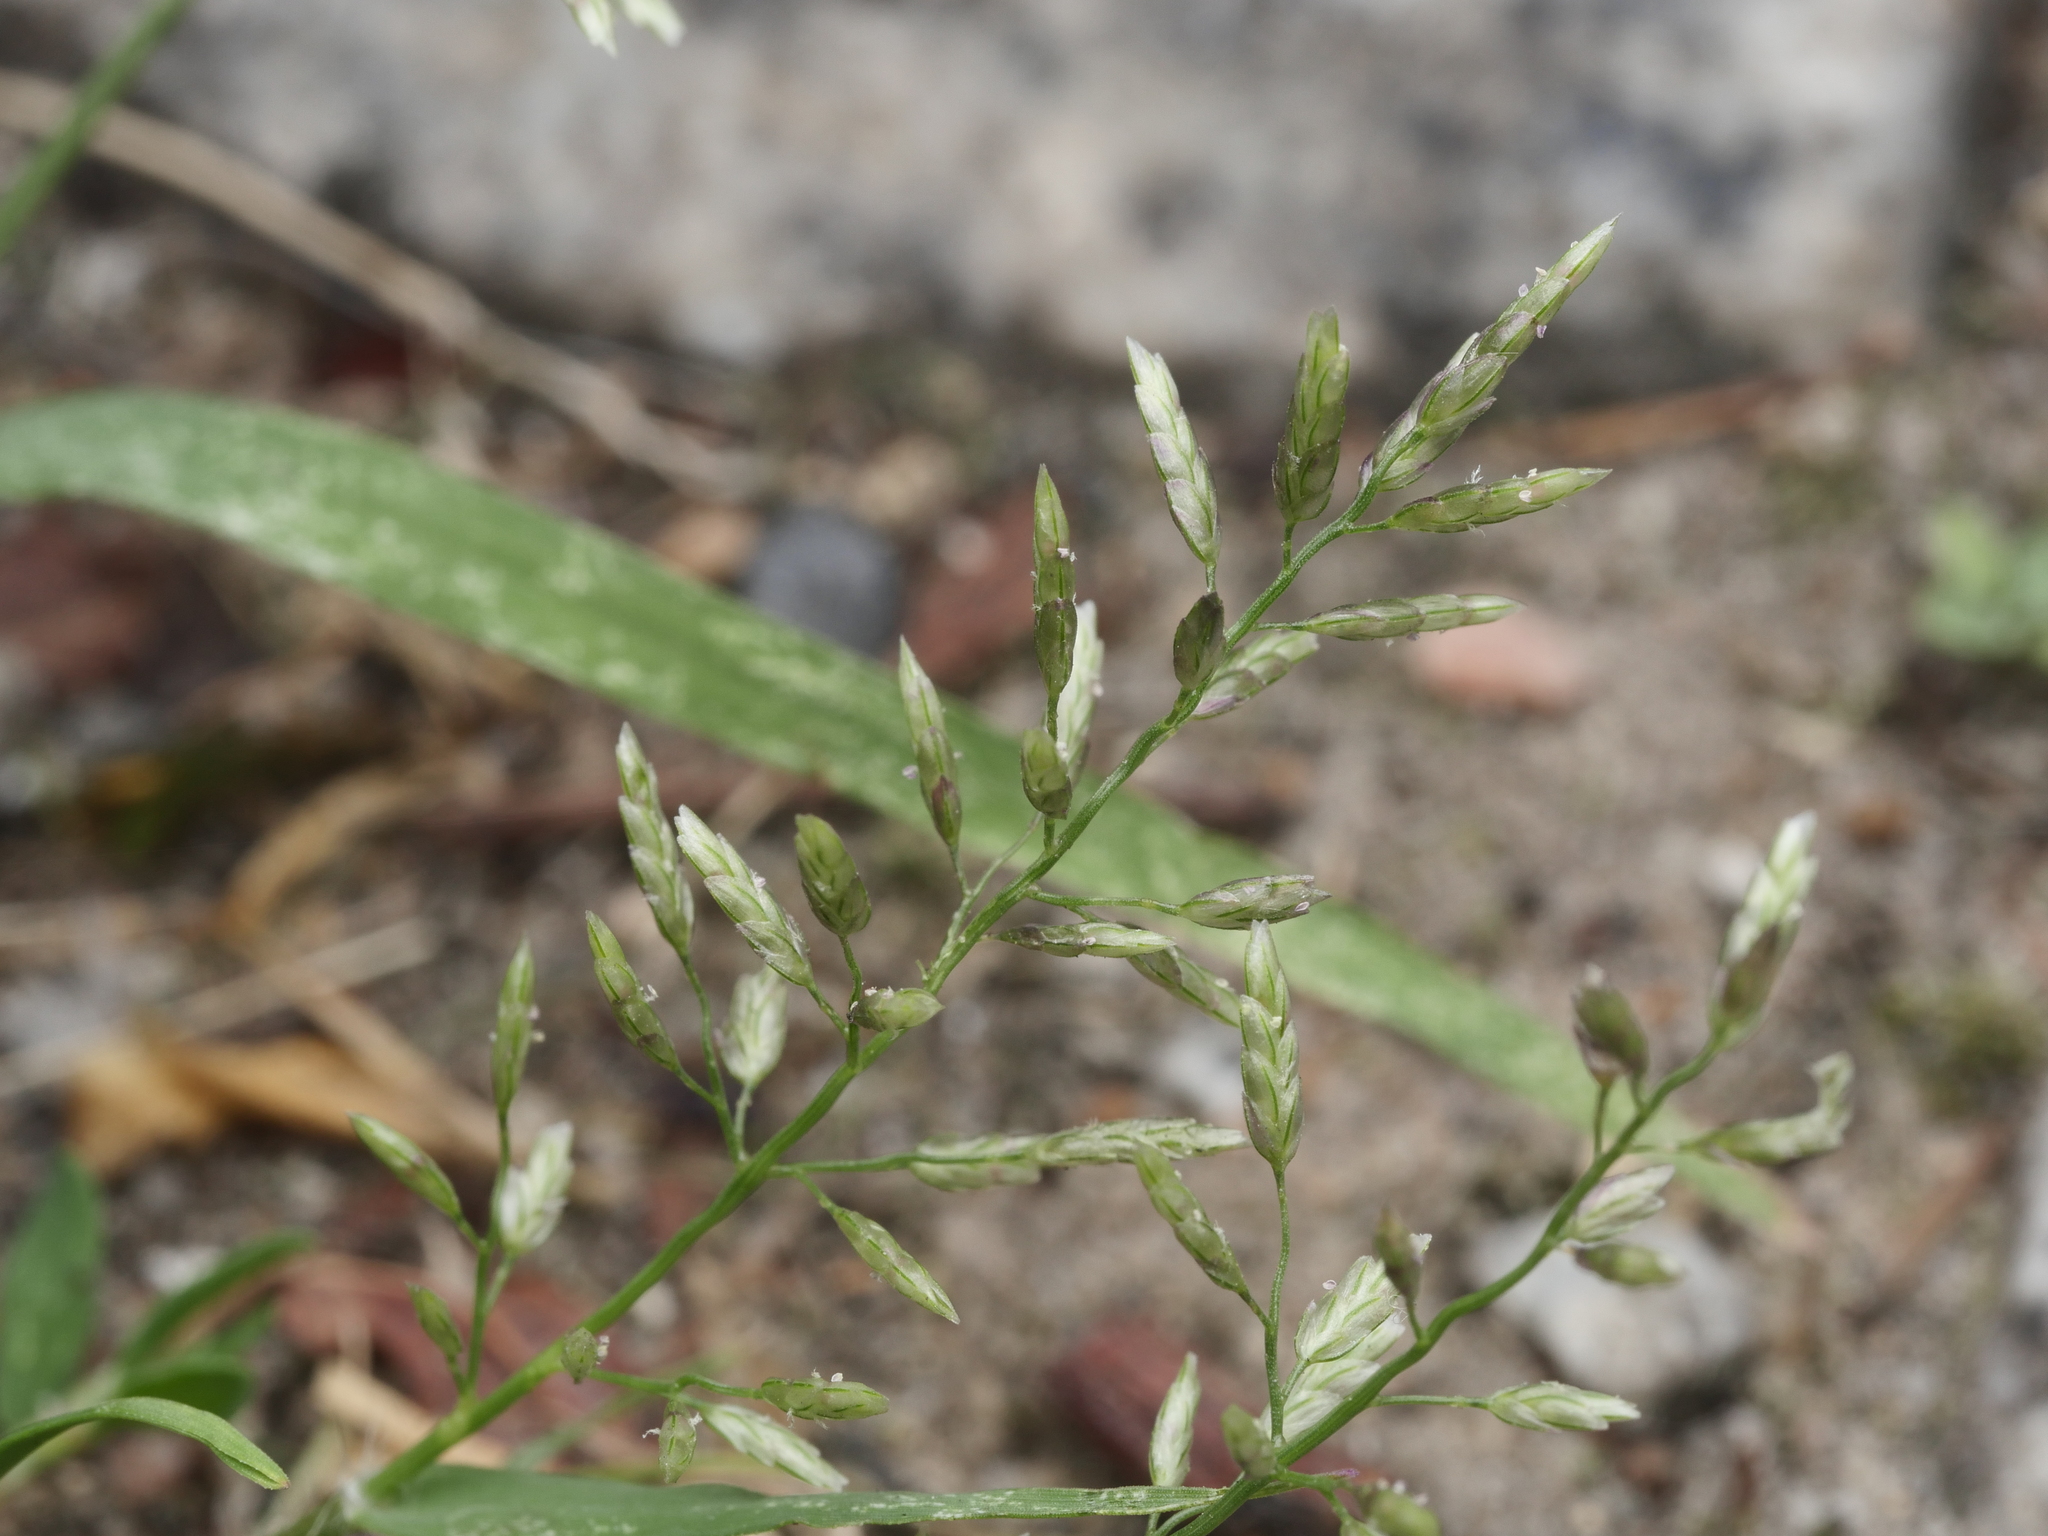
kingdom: Plantae
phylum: Tracheophyta
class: Liliopsida
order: Poales
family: Poaceae
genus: Eragrostis
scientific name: Eragrostis minor
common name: Small love-grass
